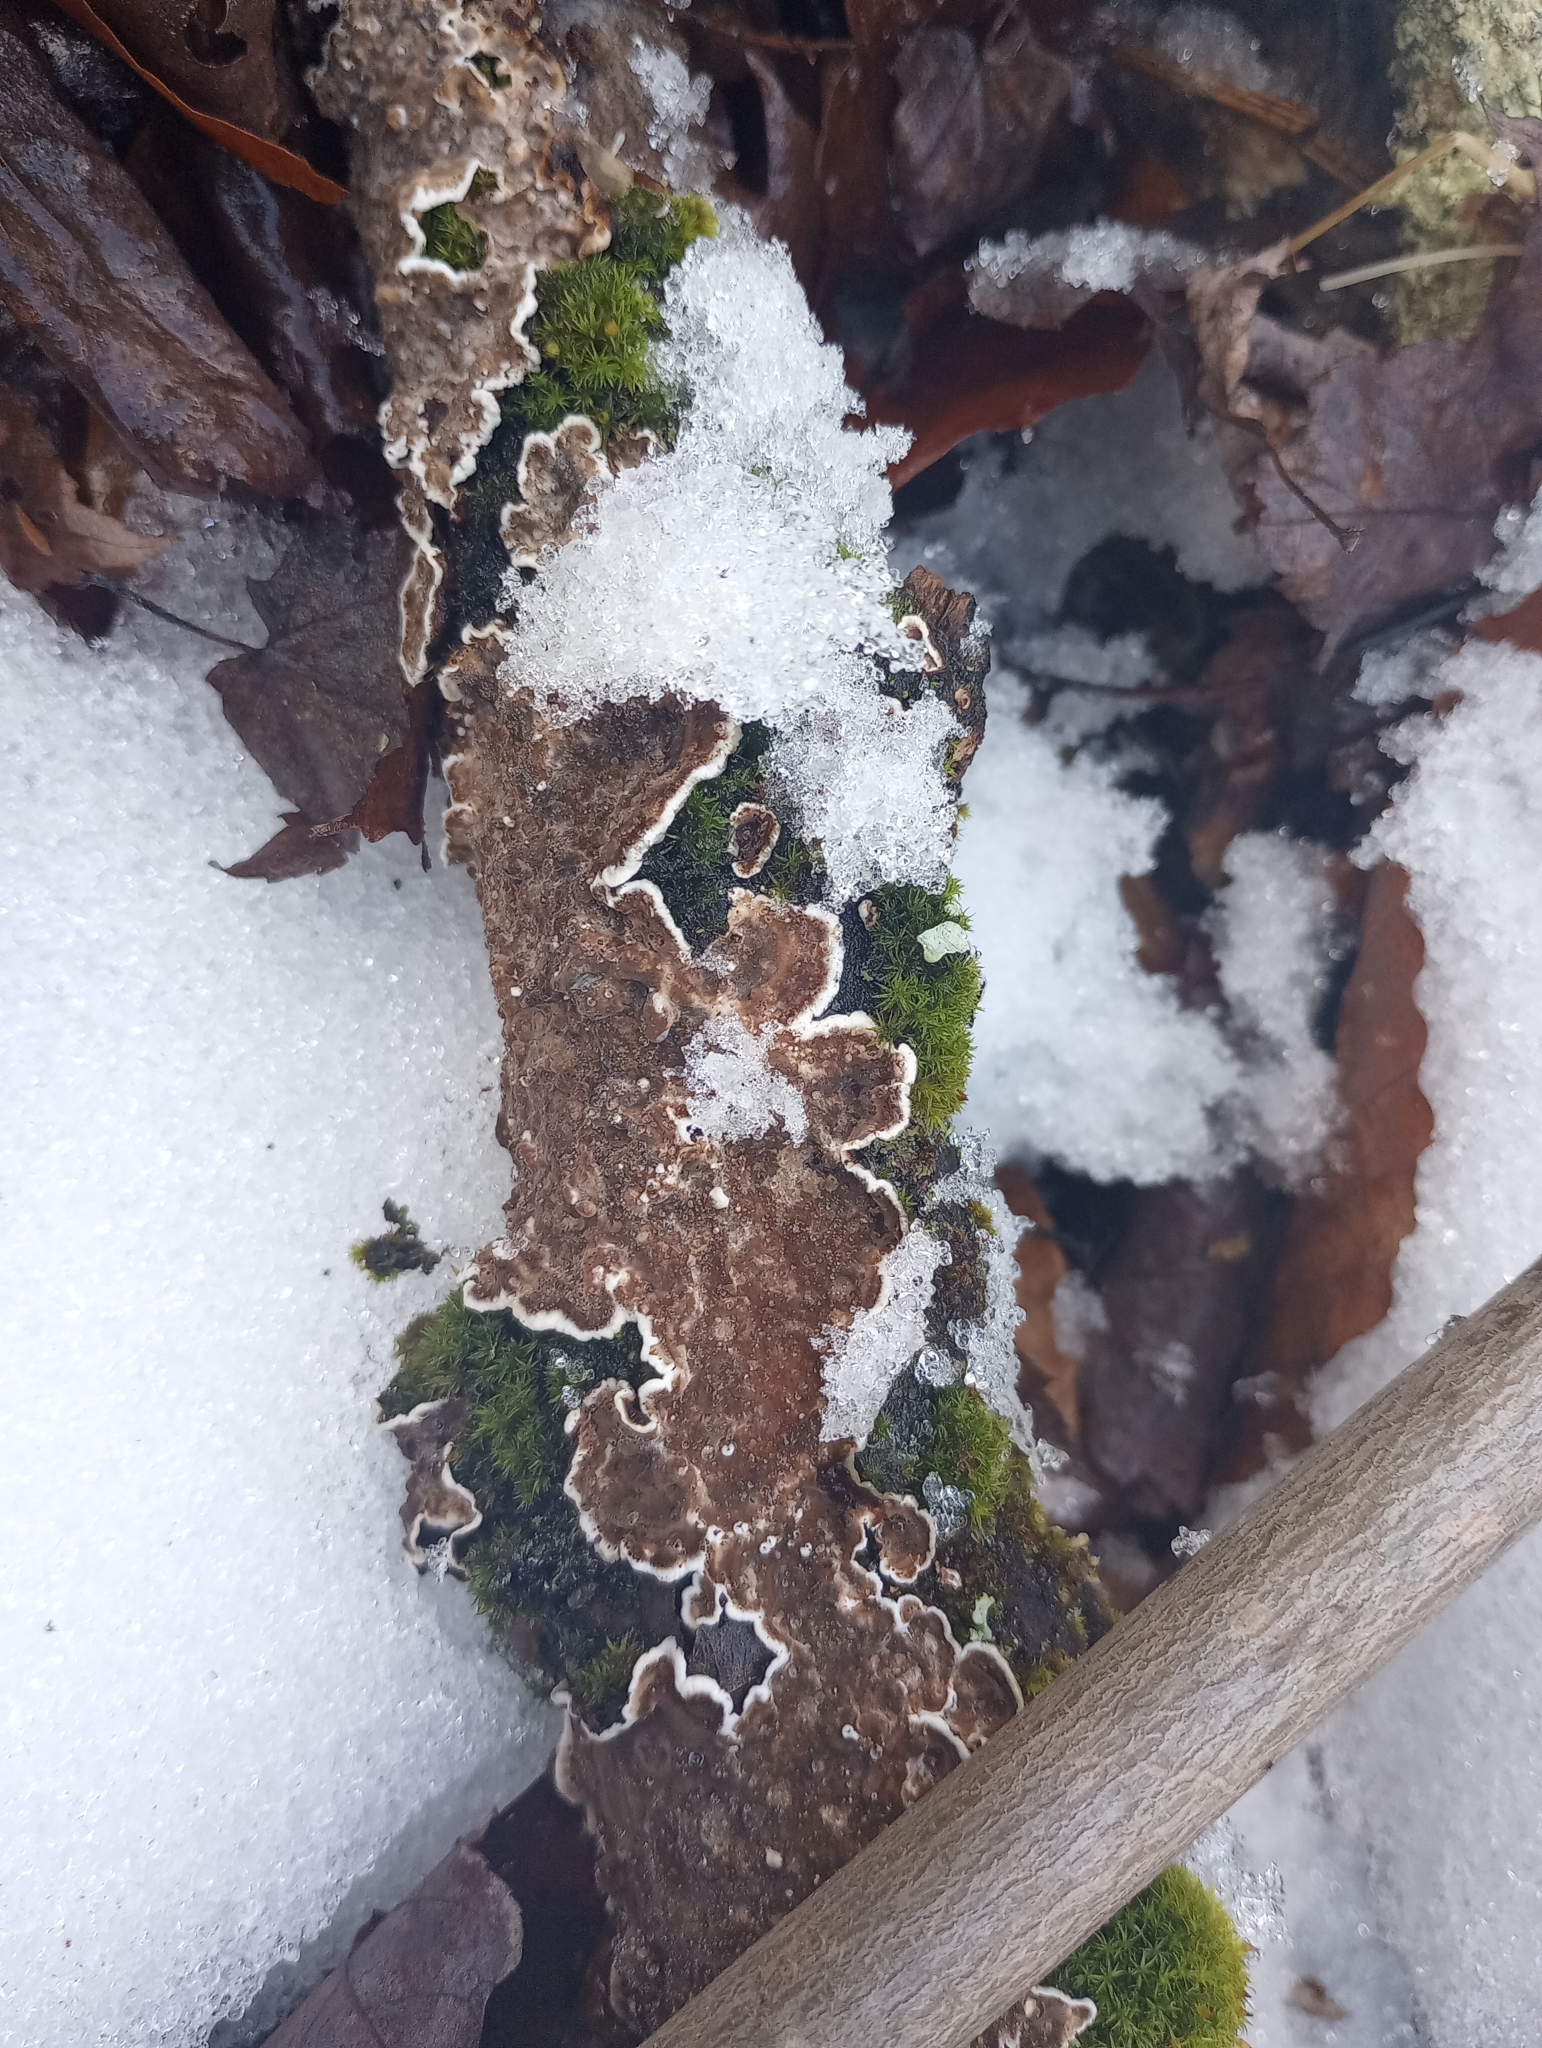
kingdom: Fungi
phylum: Basidiomycota
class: Agaricomycetes
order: Russulales
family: Peniophoraceae
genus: Peniophora
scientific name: Peniophora albobadia
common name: Giraffe spots
